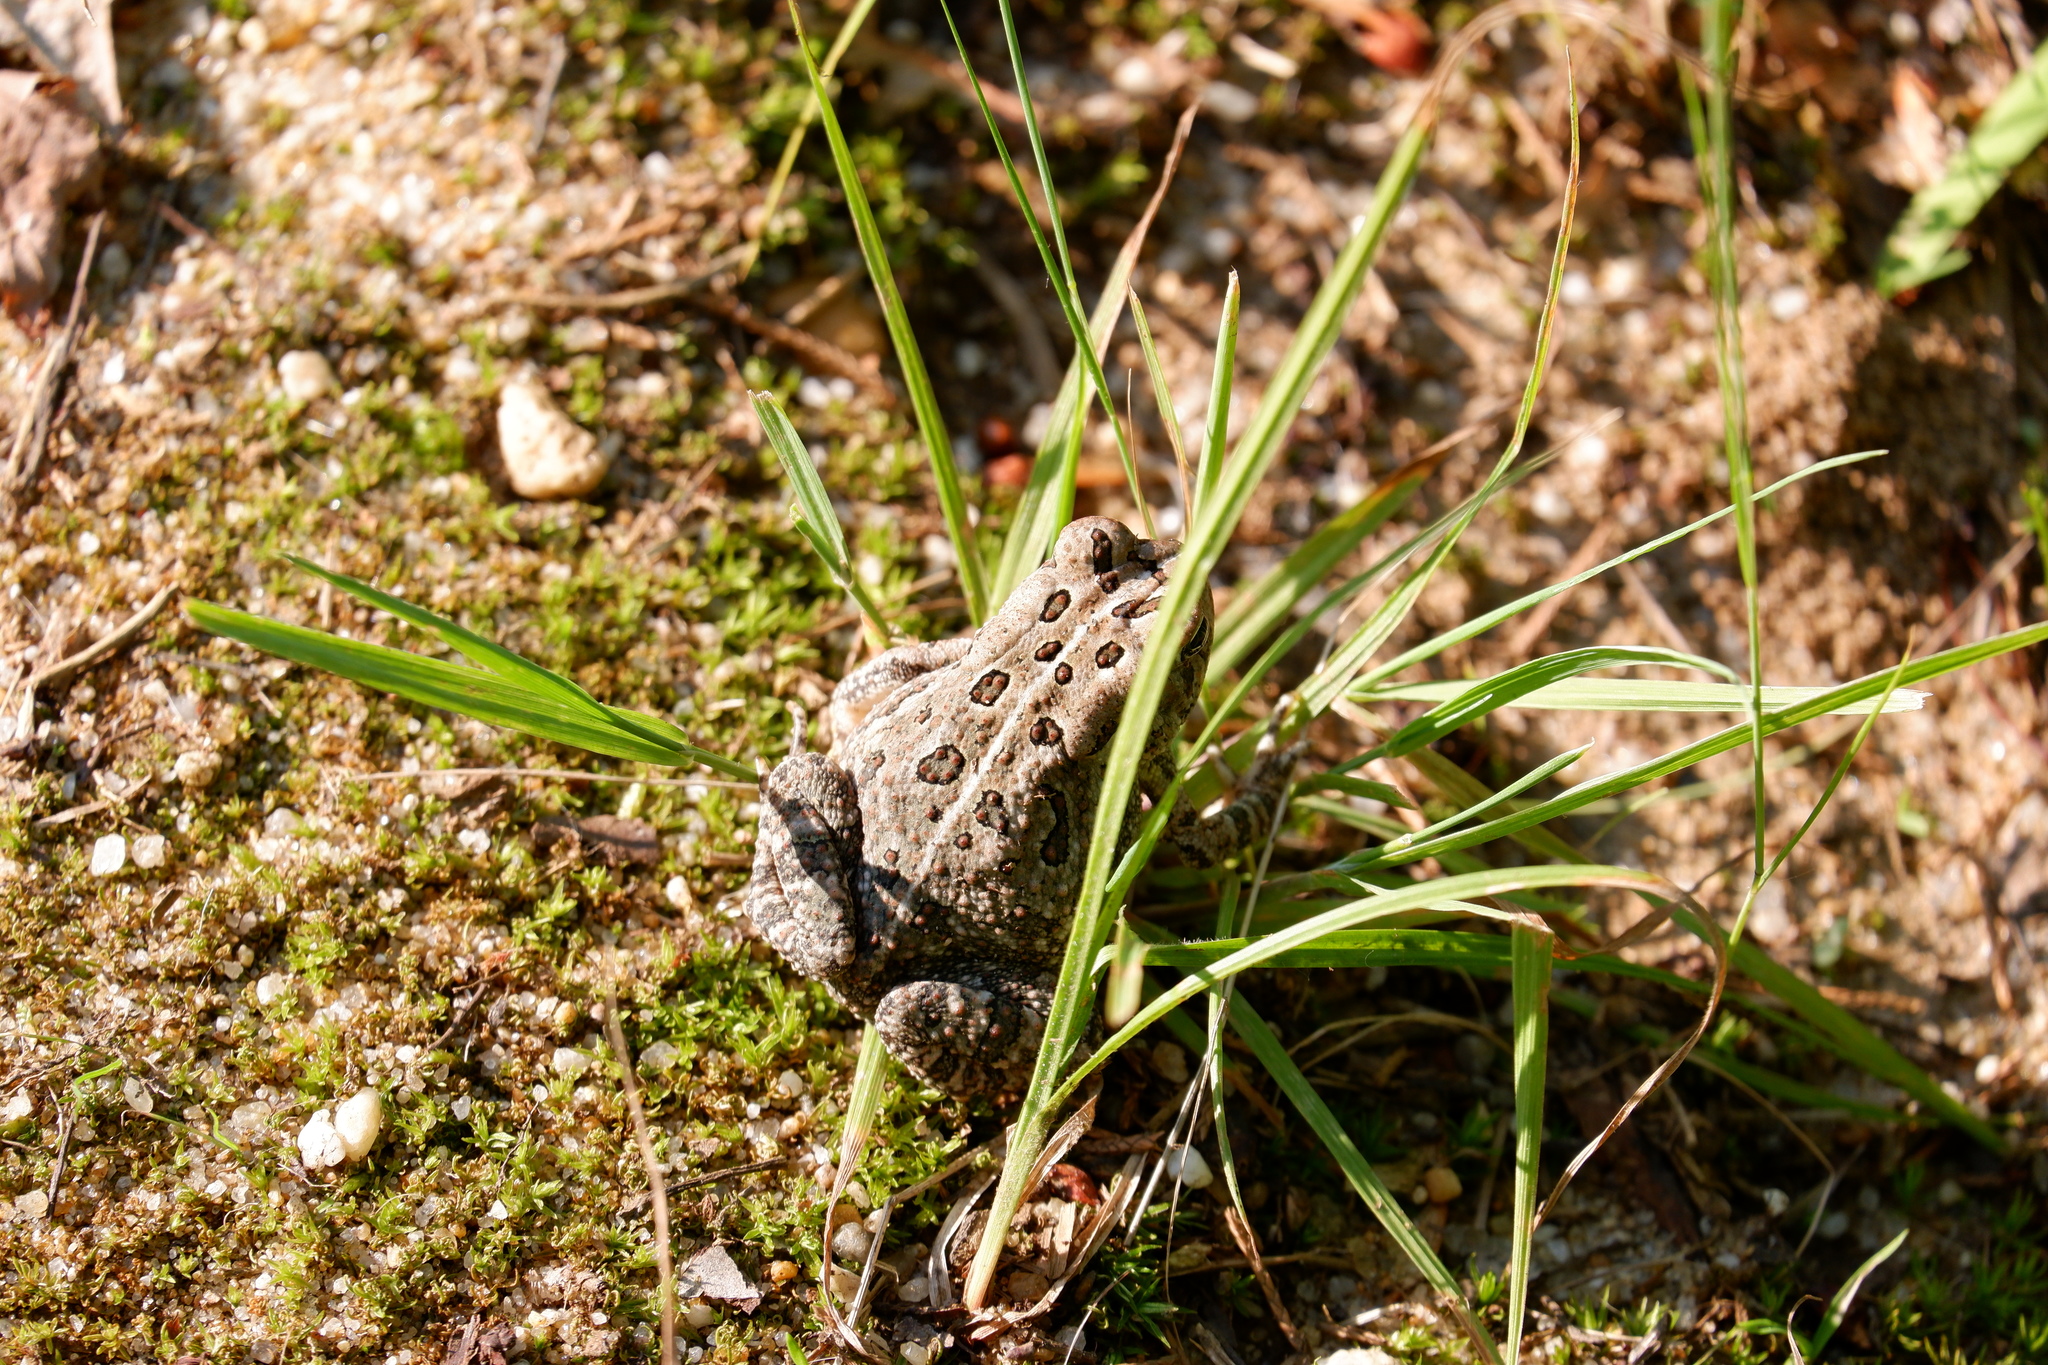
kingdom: Animalia
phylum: Chordata
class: Amphibia
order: Anura
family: Bufonidae
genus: Anaxyrus
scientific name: Anaxyrus fowleri
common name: Fowler's toad
